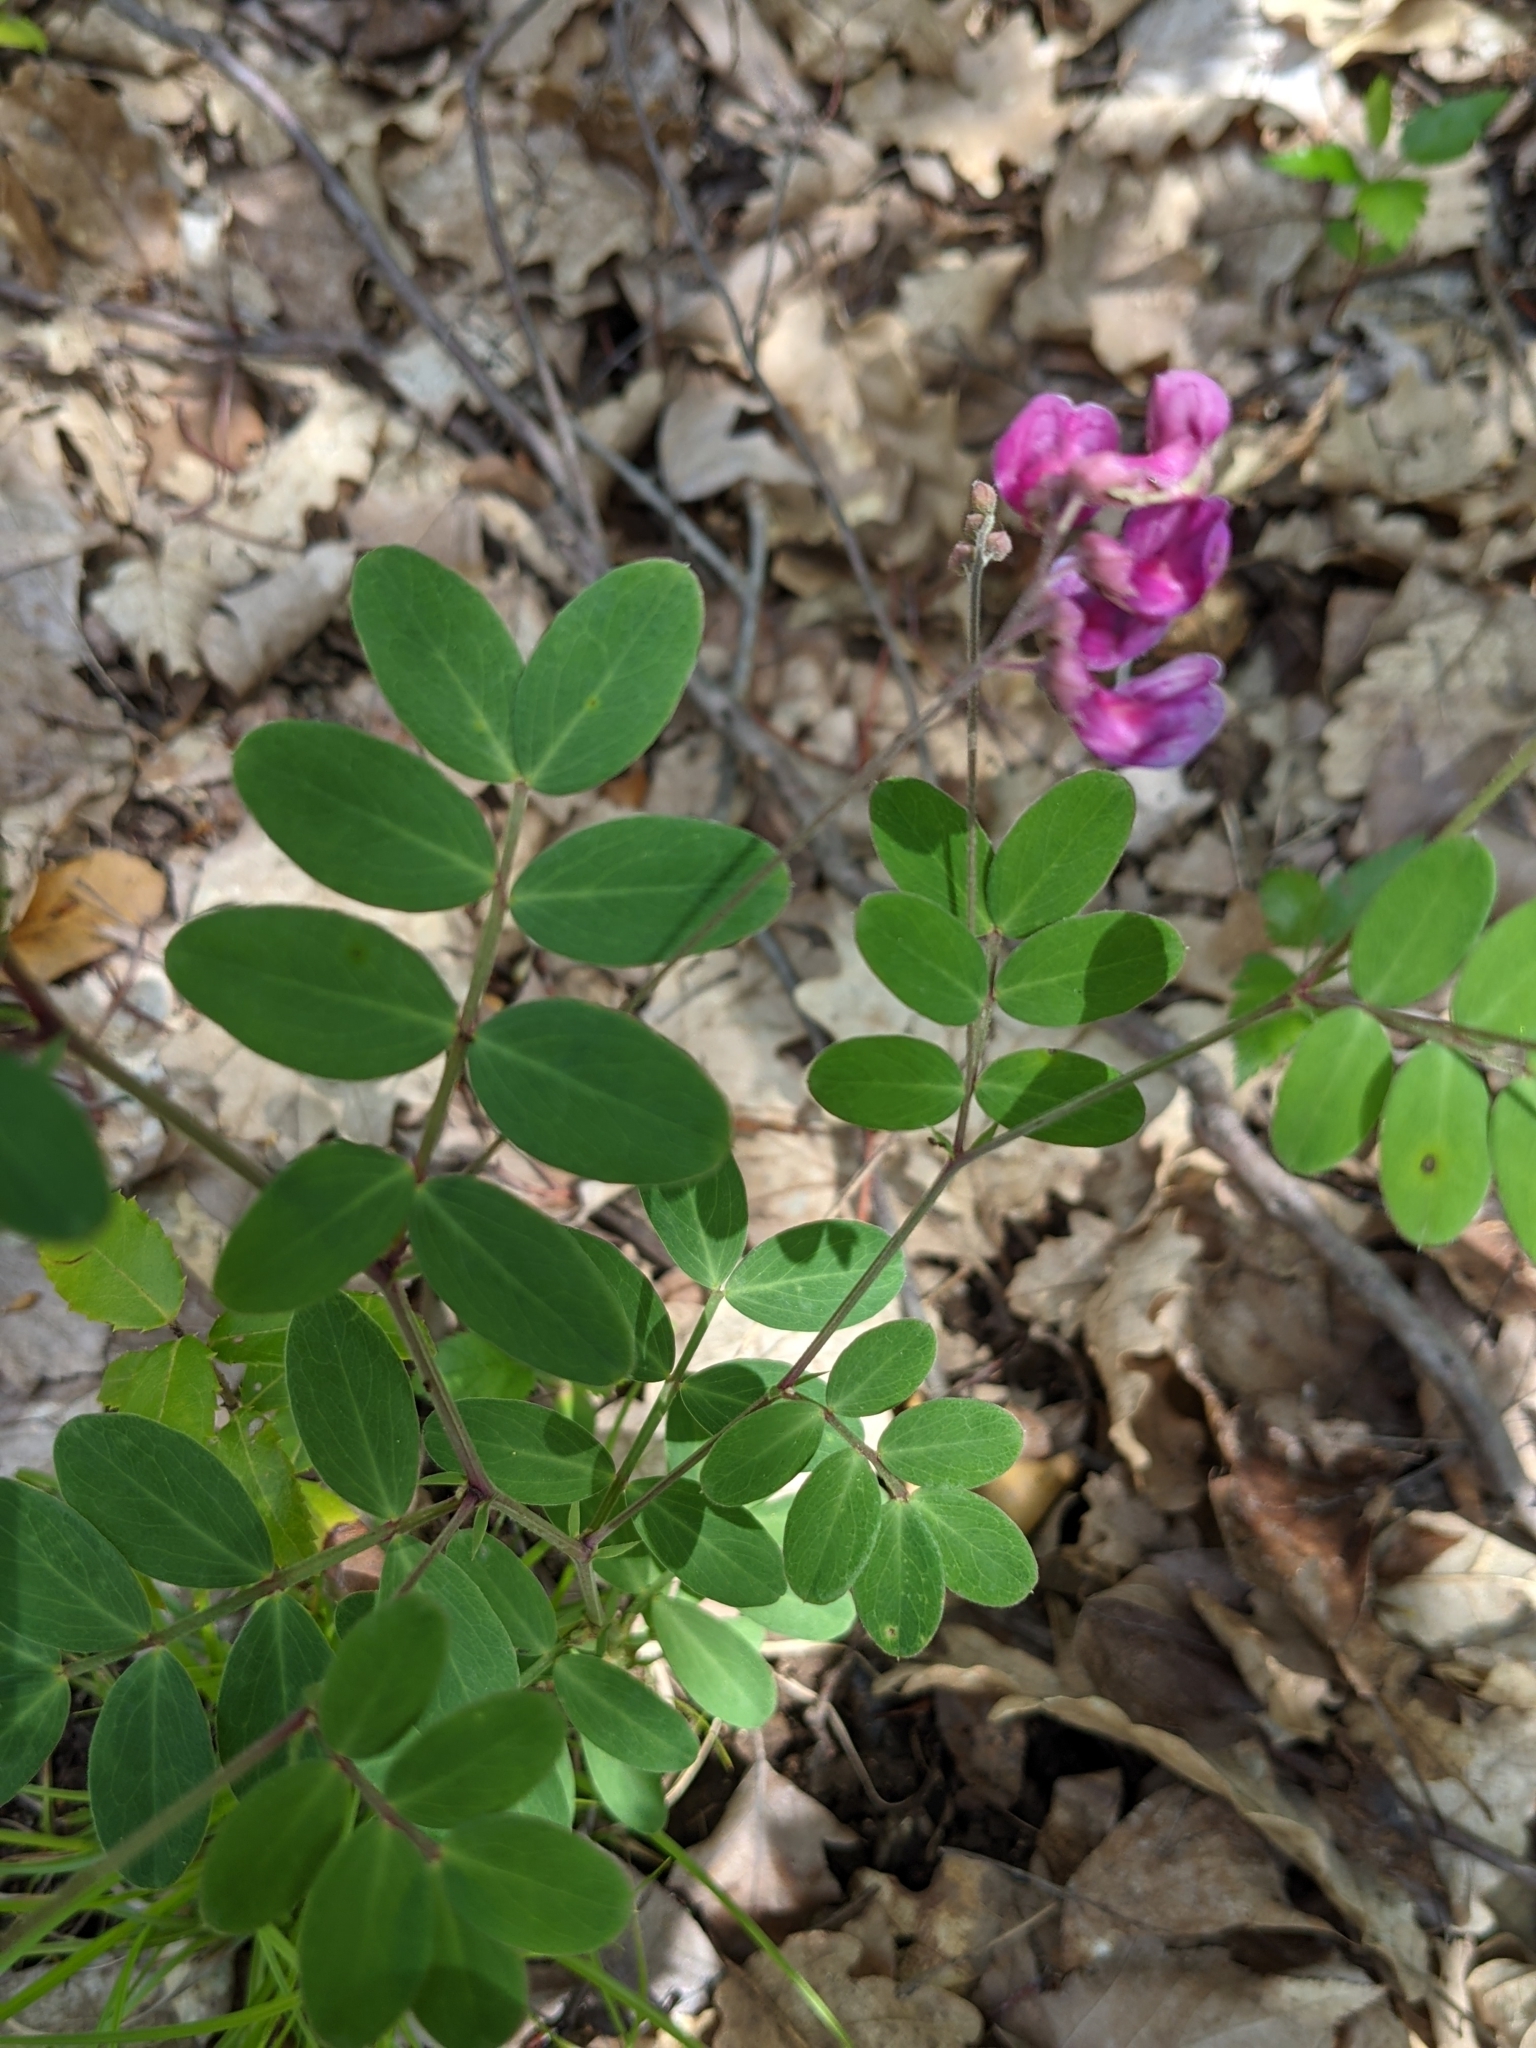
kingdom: Plantae
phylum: Tracheophyta
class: Magnoliopsida
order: Fabales
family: Fabaceae
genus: Lathyrus
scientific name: Lathyrus niger
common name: Black pea
